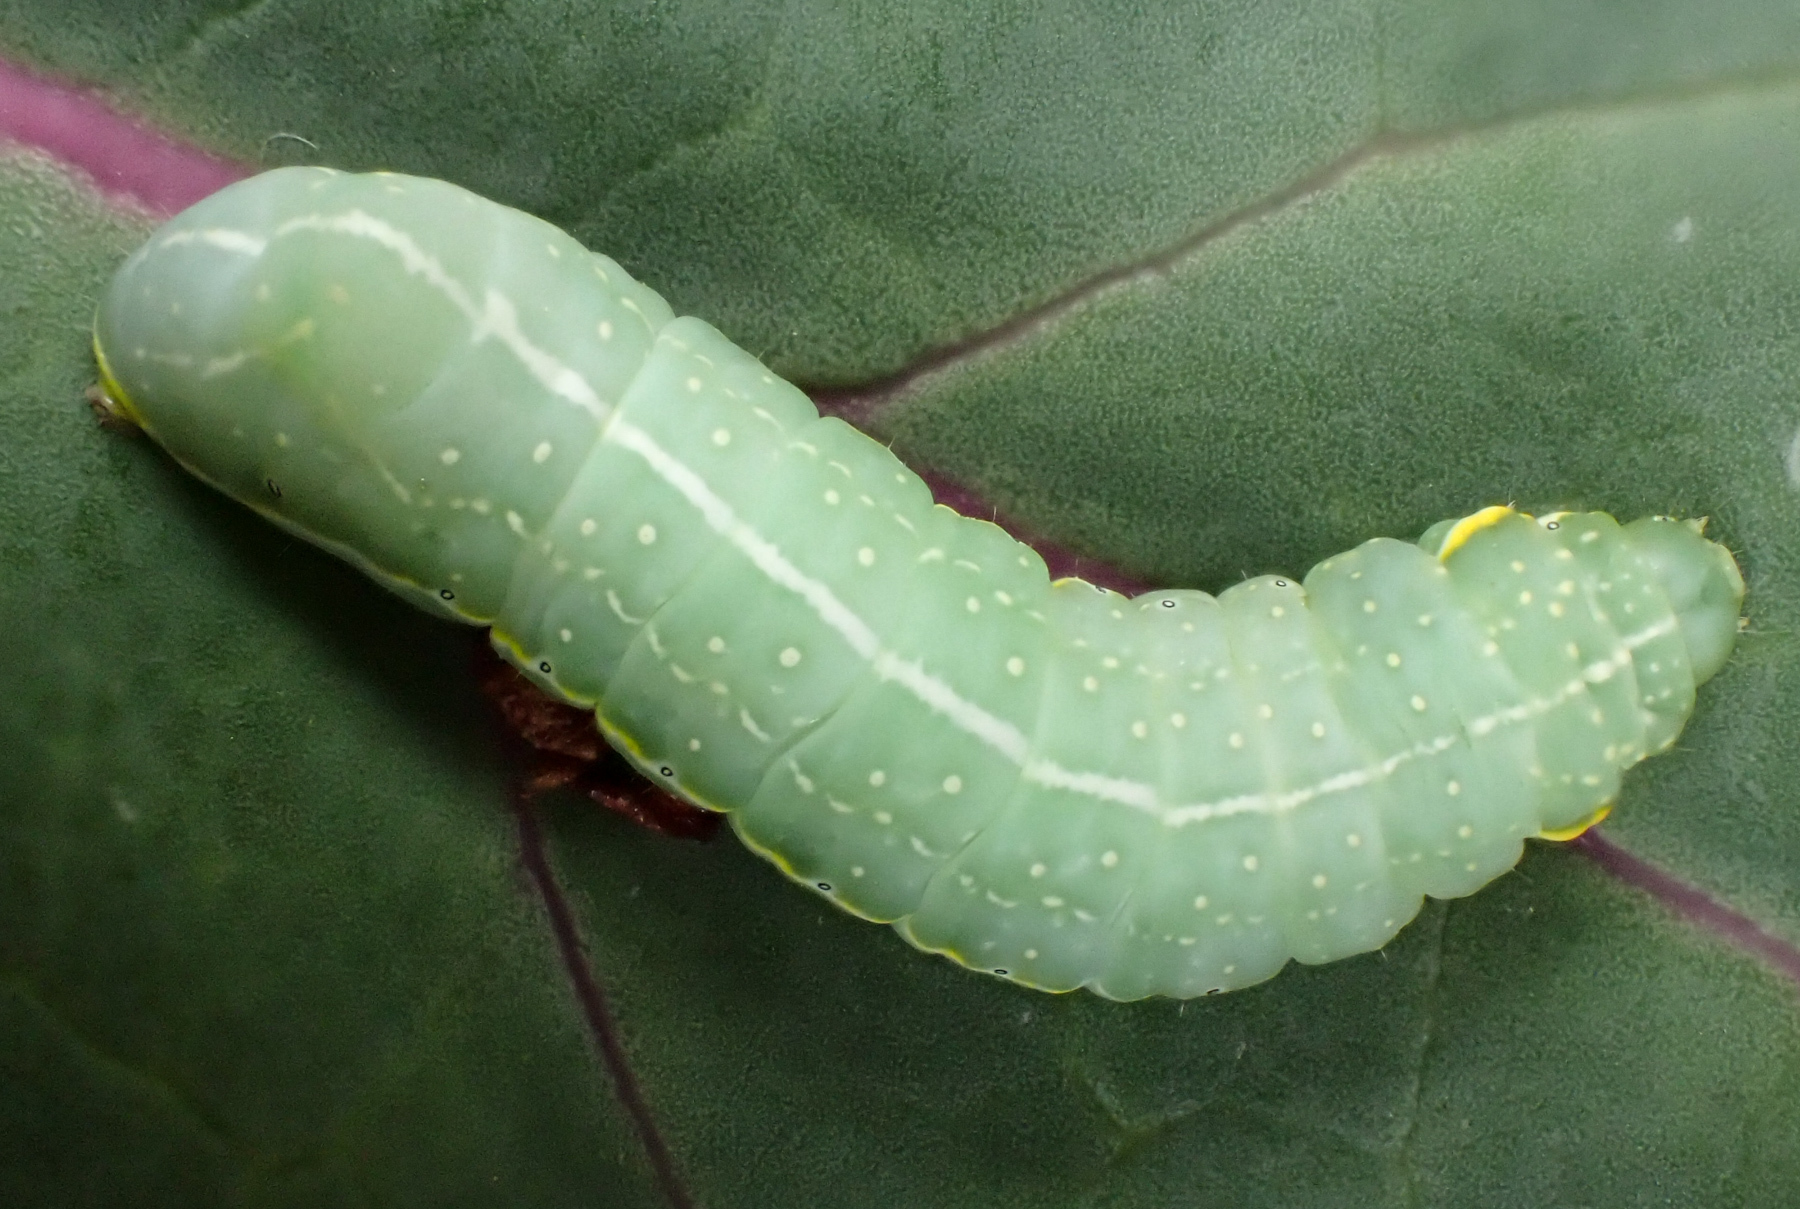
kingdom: Animalia
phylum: Arthropoda
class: Insecta
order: Lepidoptera
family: Noctuidae
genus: Amphipyra
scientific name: Amphipyra pyramidoides
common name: American copper underwing
